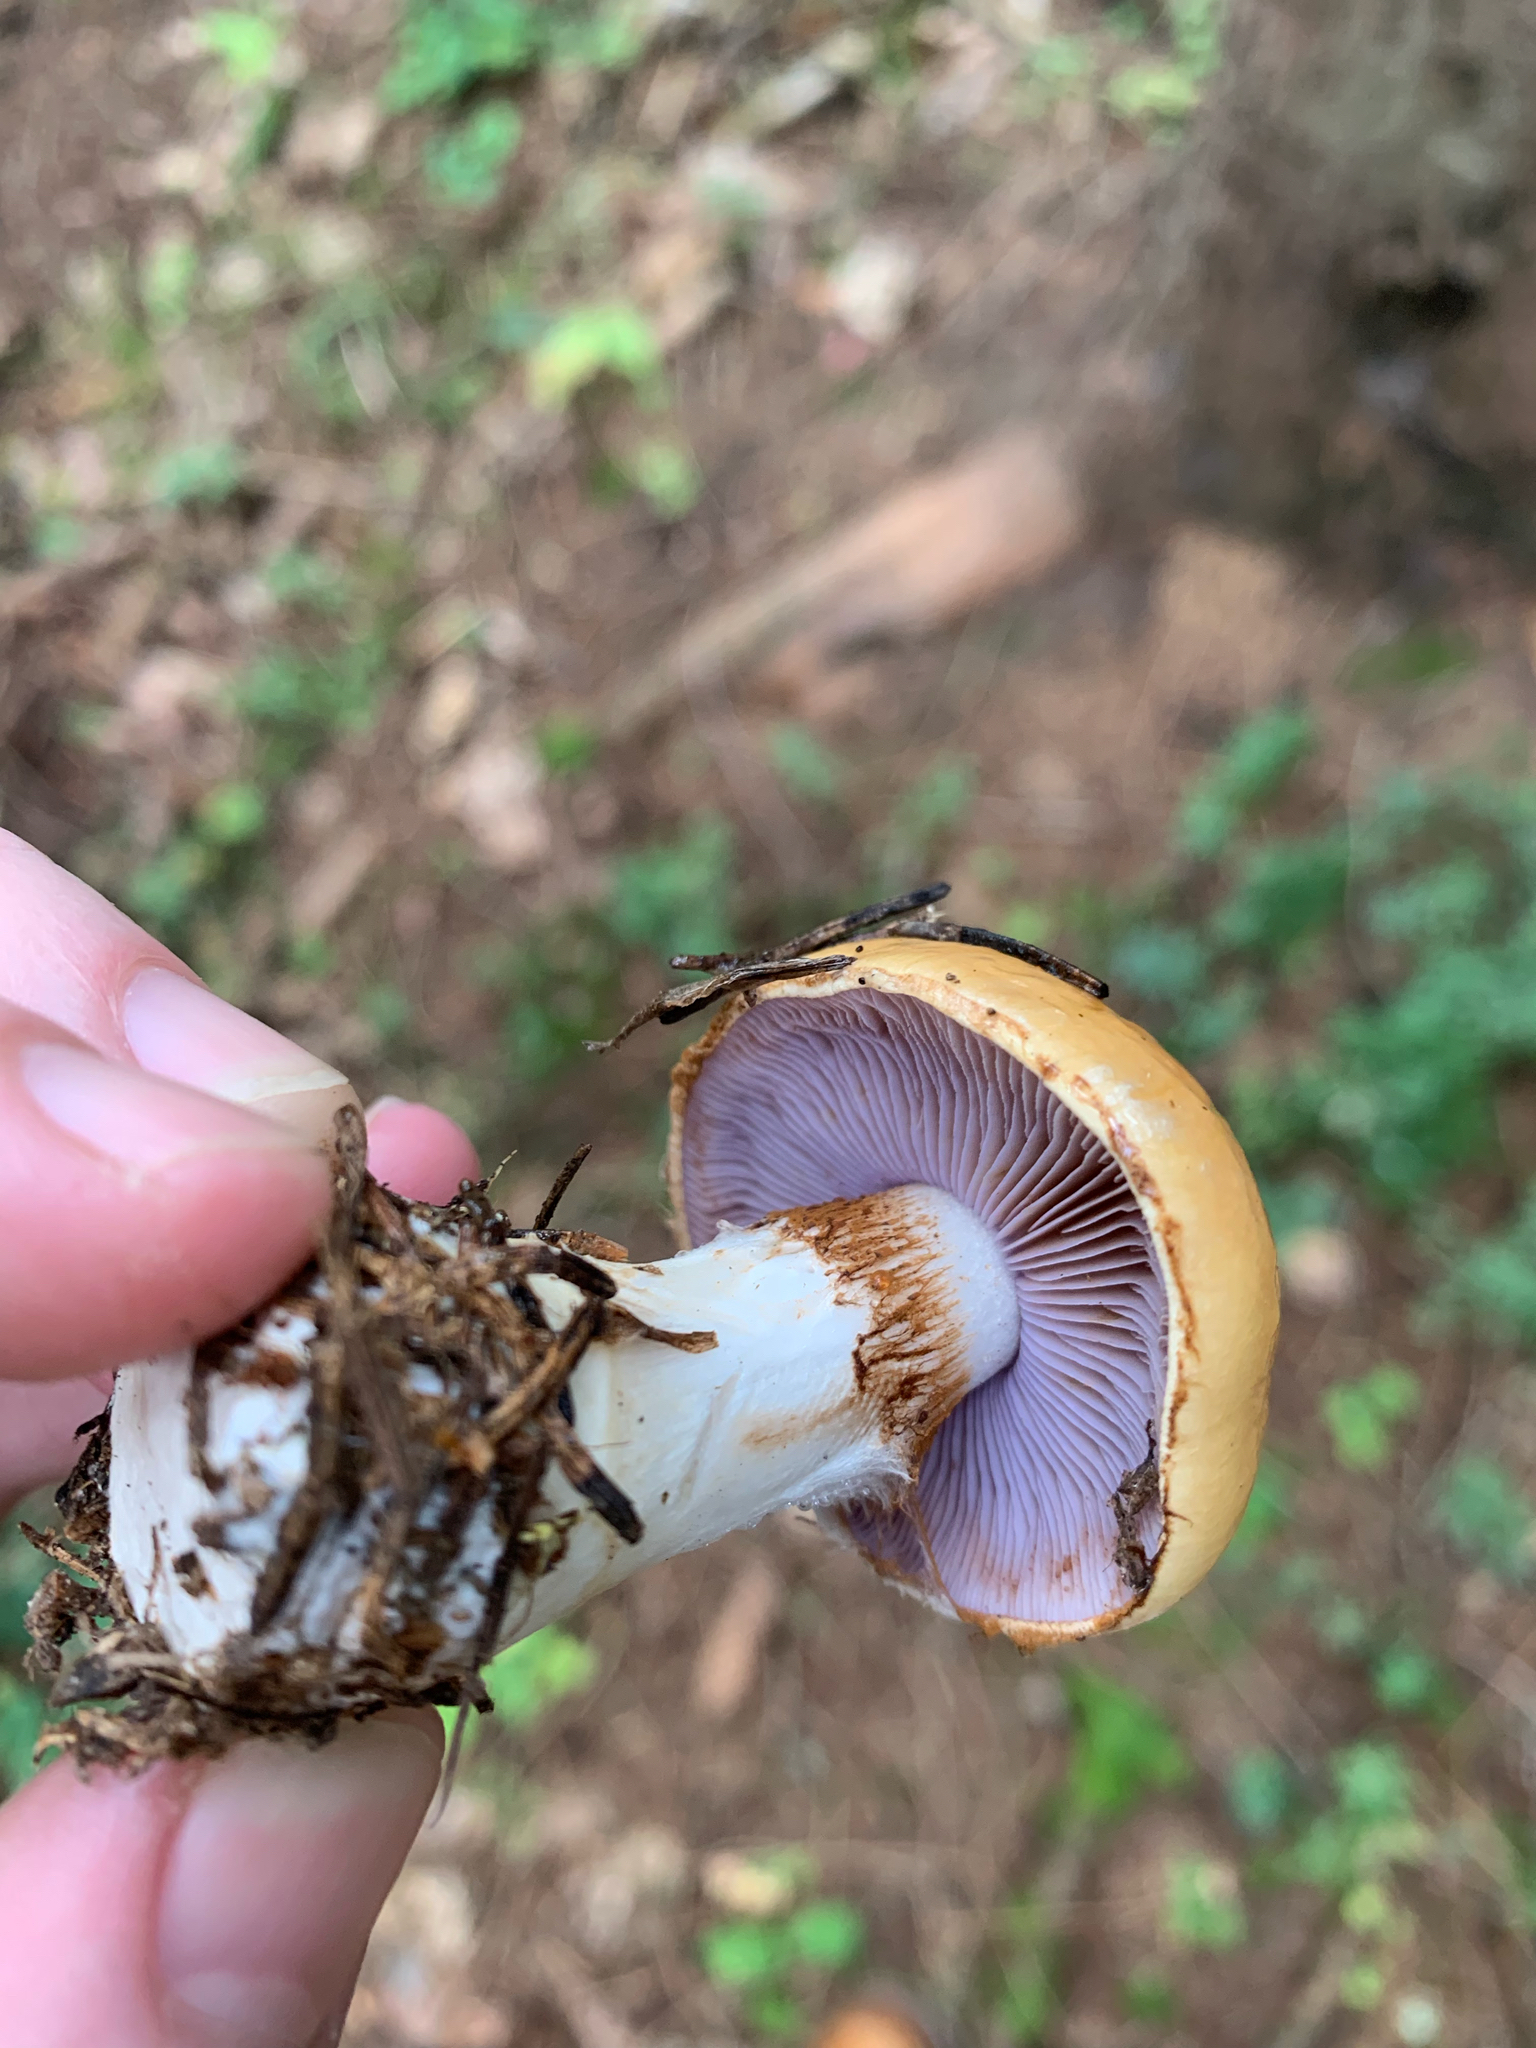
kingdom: Fungi
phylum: Basidiomycota
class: Agaricomycetes
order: Agaricales
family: Cortinariaceae
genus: Cortinarius
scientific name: Cortinarius varius
